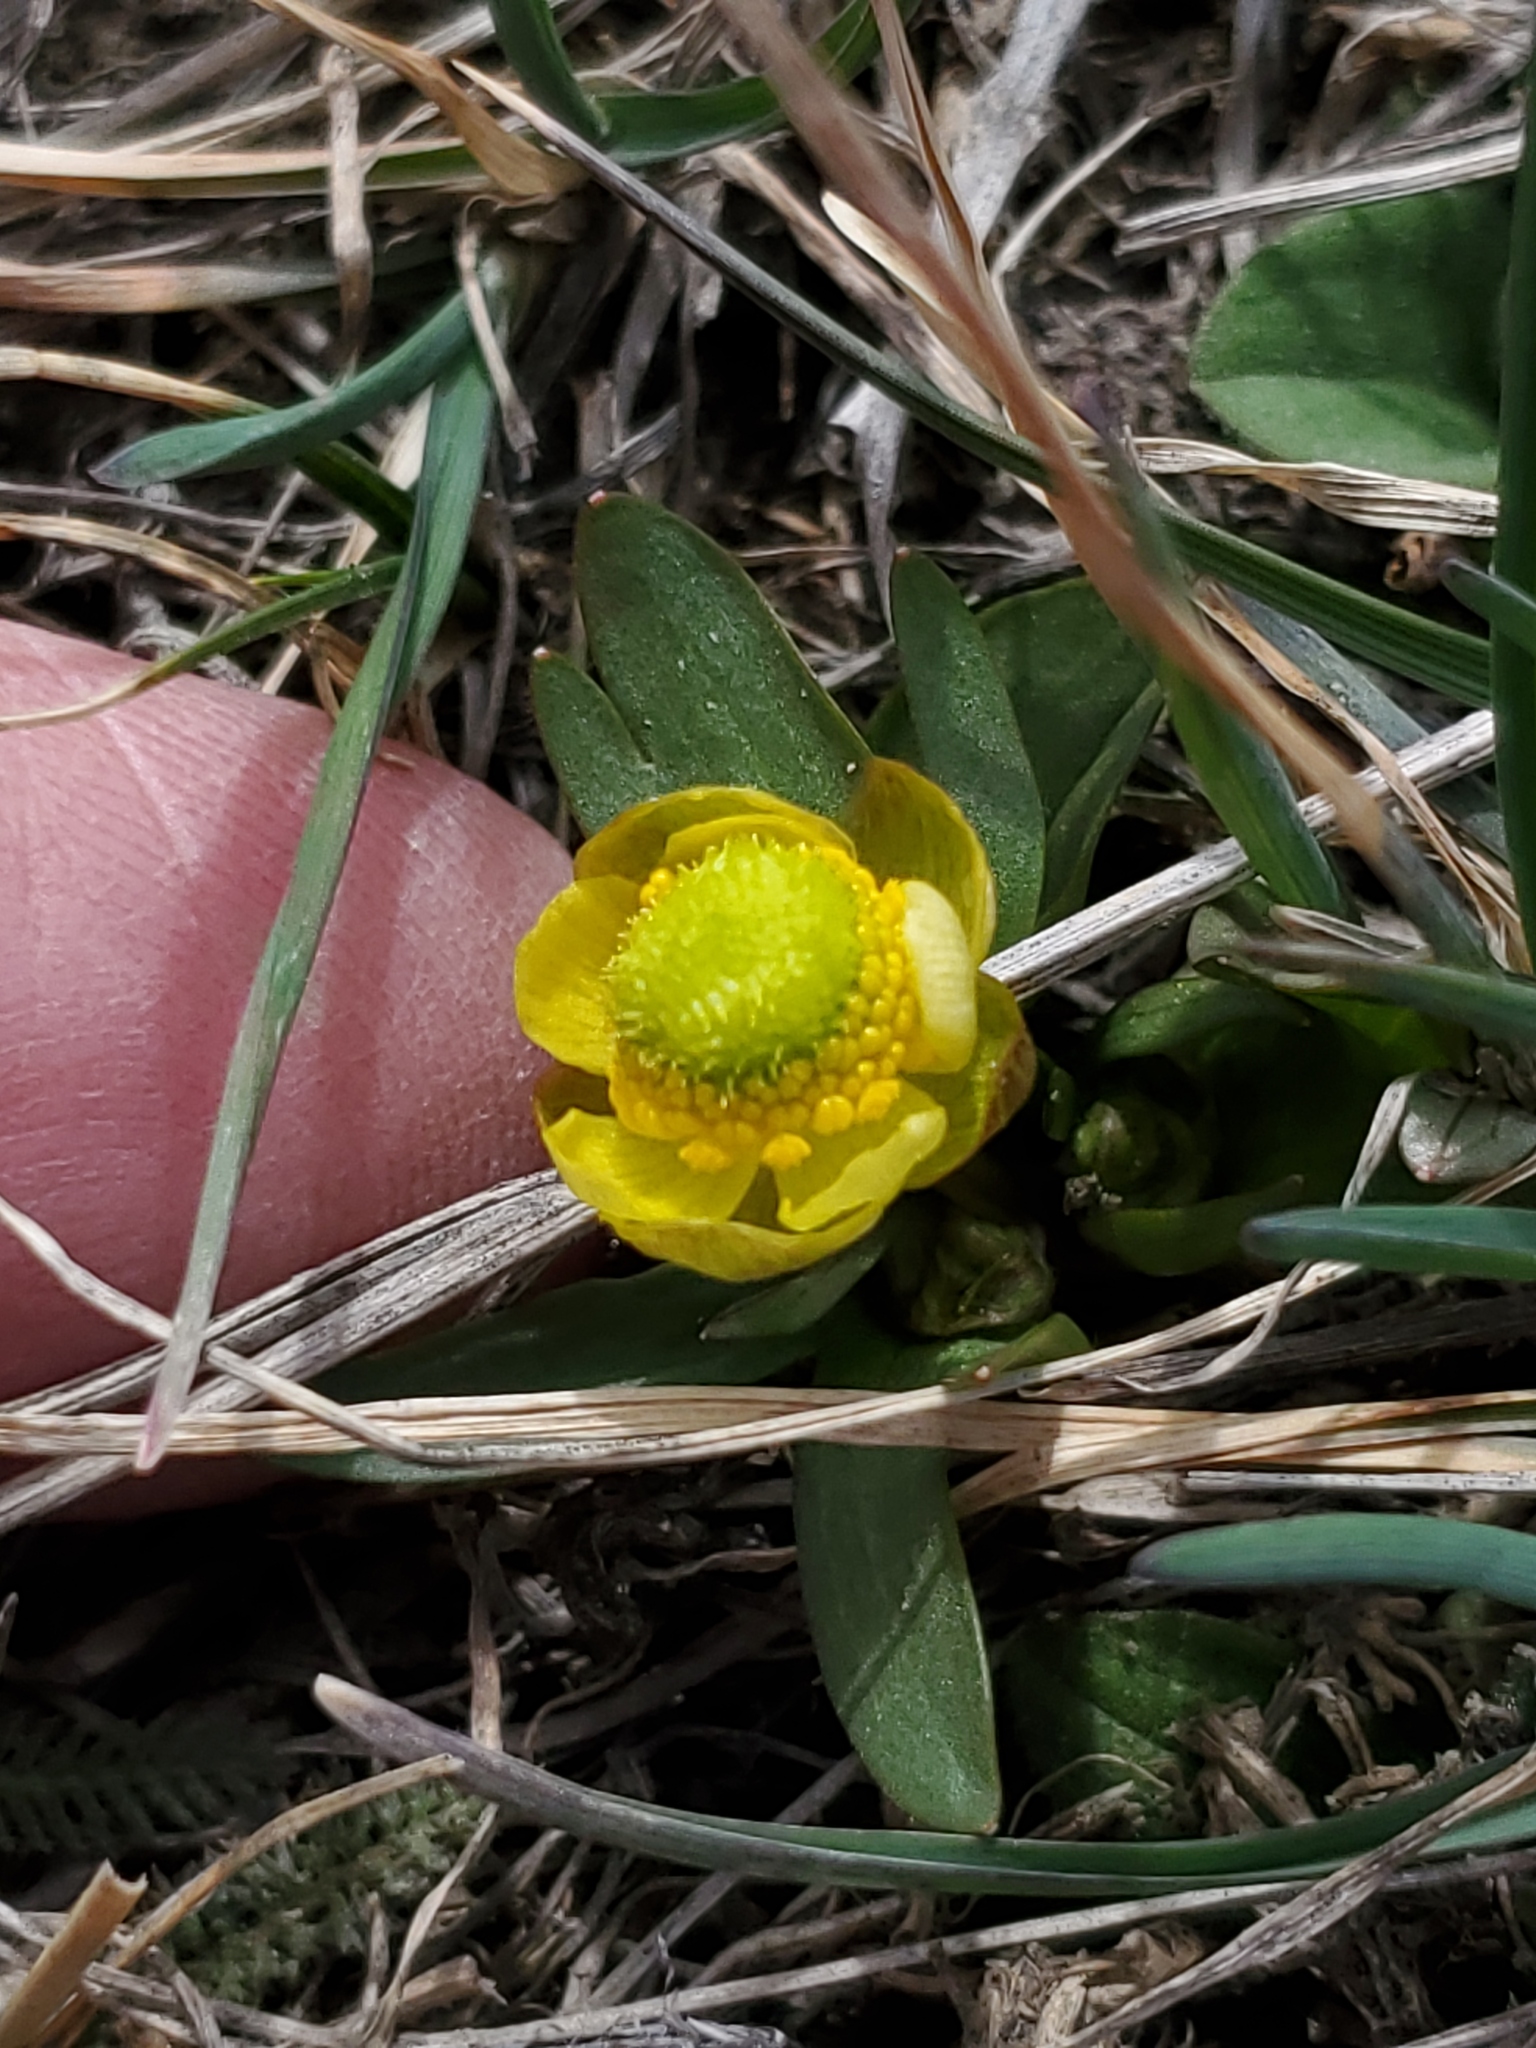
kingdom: Plantae
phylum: Tracheophyta
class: Magnoliopsida
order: Ranunculales
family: Ranunculaceae
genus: Ranunculus
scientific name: Ranunculus glaberrimus
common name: Sagebrush buttercup
